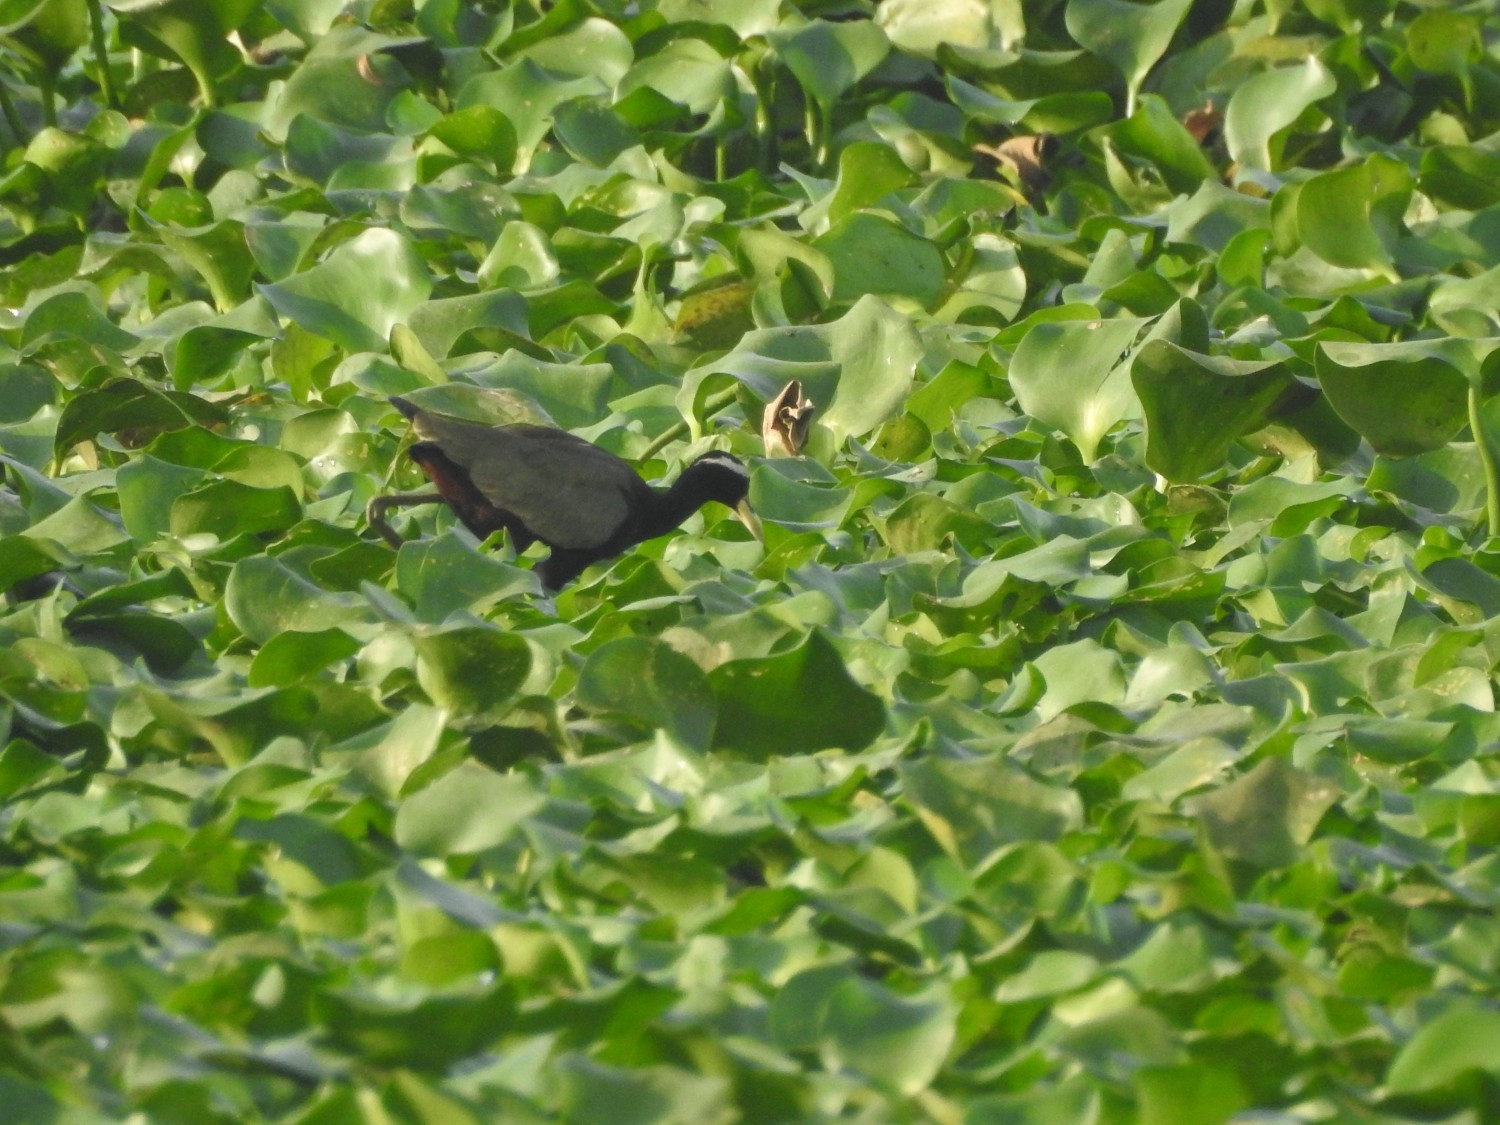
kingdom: Animalia
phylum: Chordata
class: Aves
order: Charadriiformes
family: Jacanidae
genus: Metopidius
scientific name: Metopidius indicus
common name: Bronze-winged jacana
